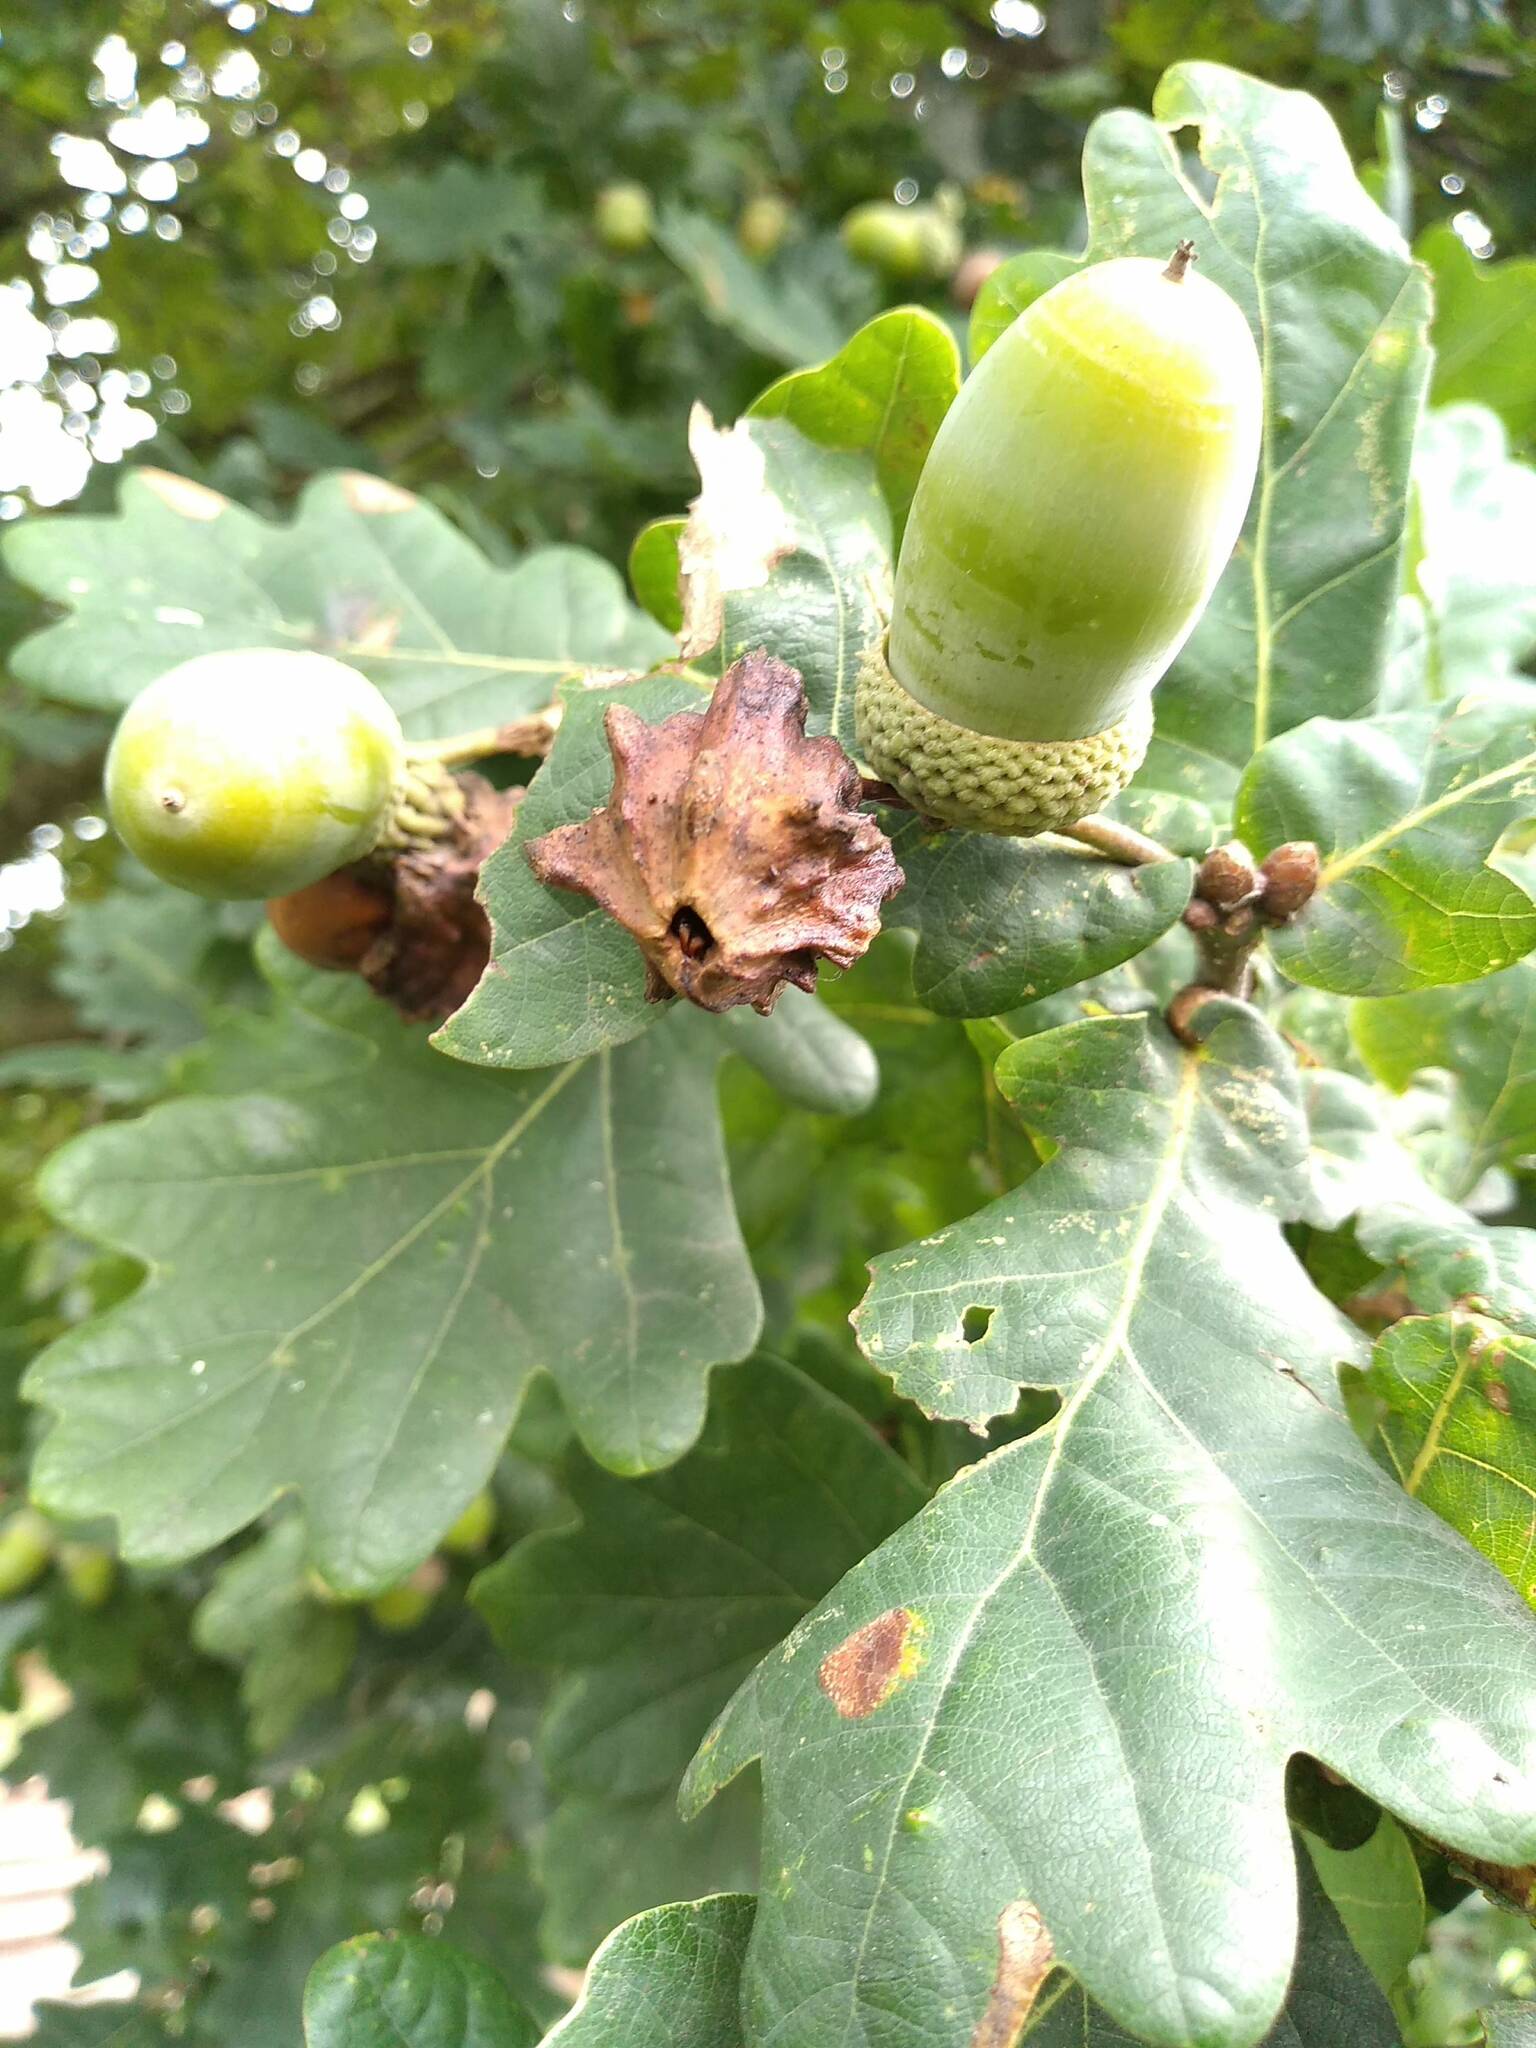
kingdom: Animalia
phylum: Arthropoda
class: Insecta
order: Hymenoptera
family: Cynipidae
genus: Andricus
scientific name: Andricus quercuscalicis
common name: Knopper gall
